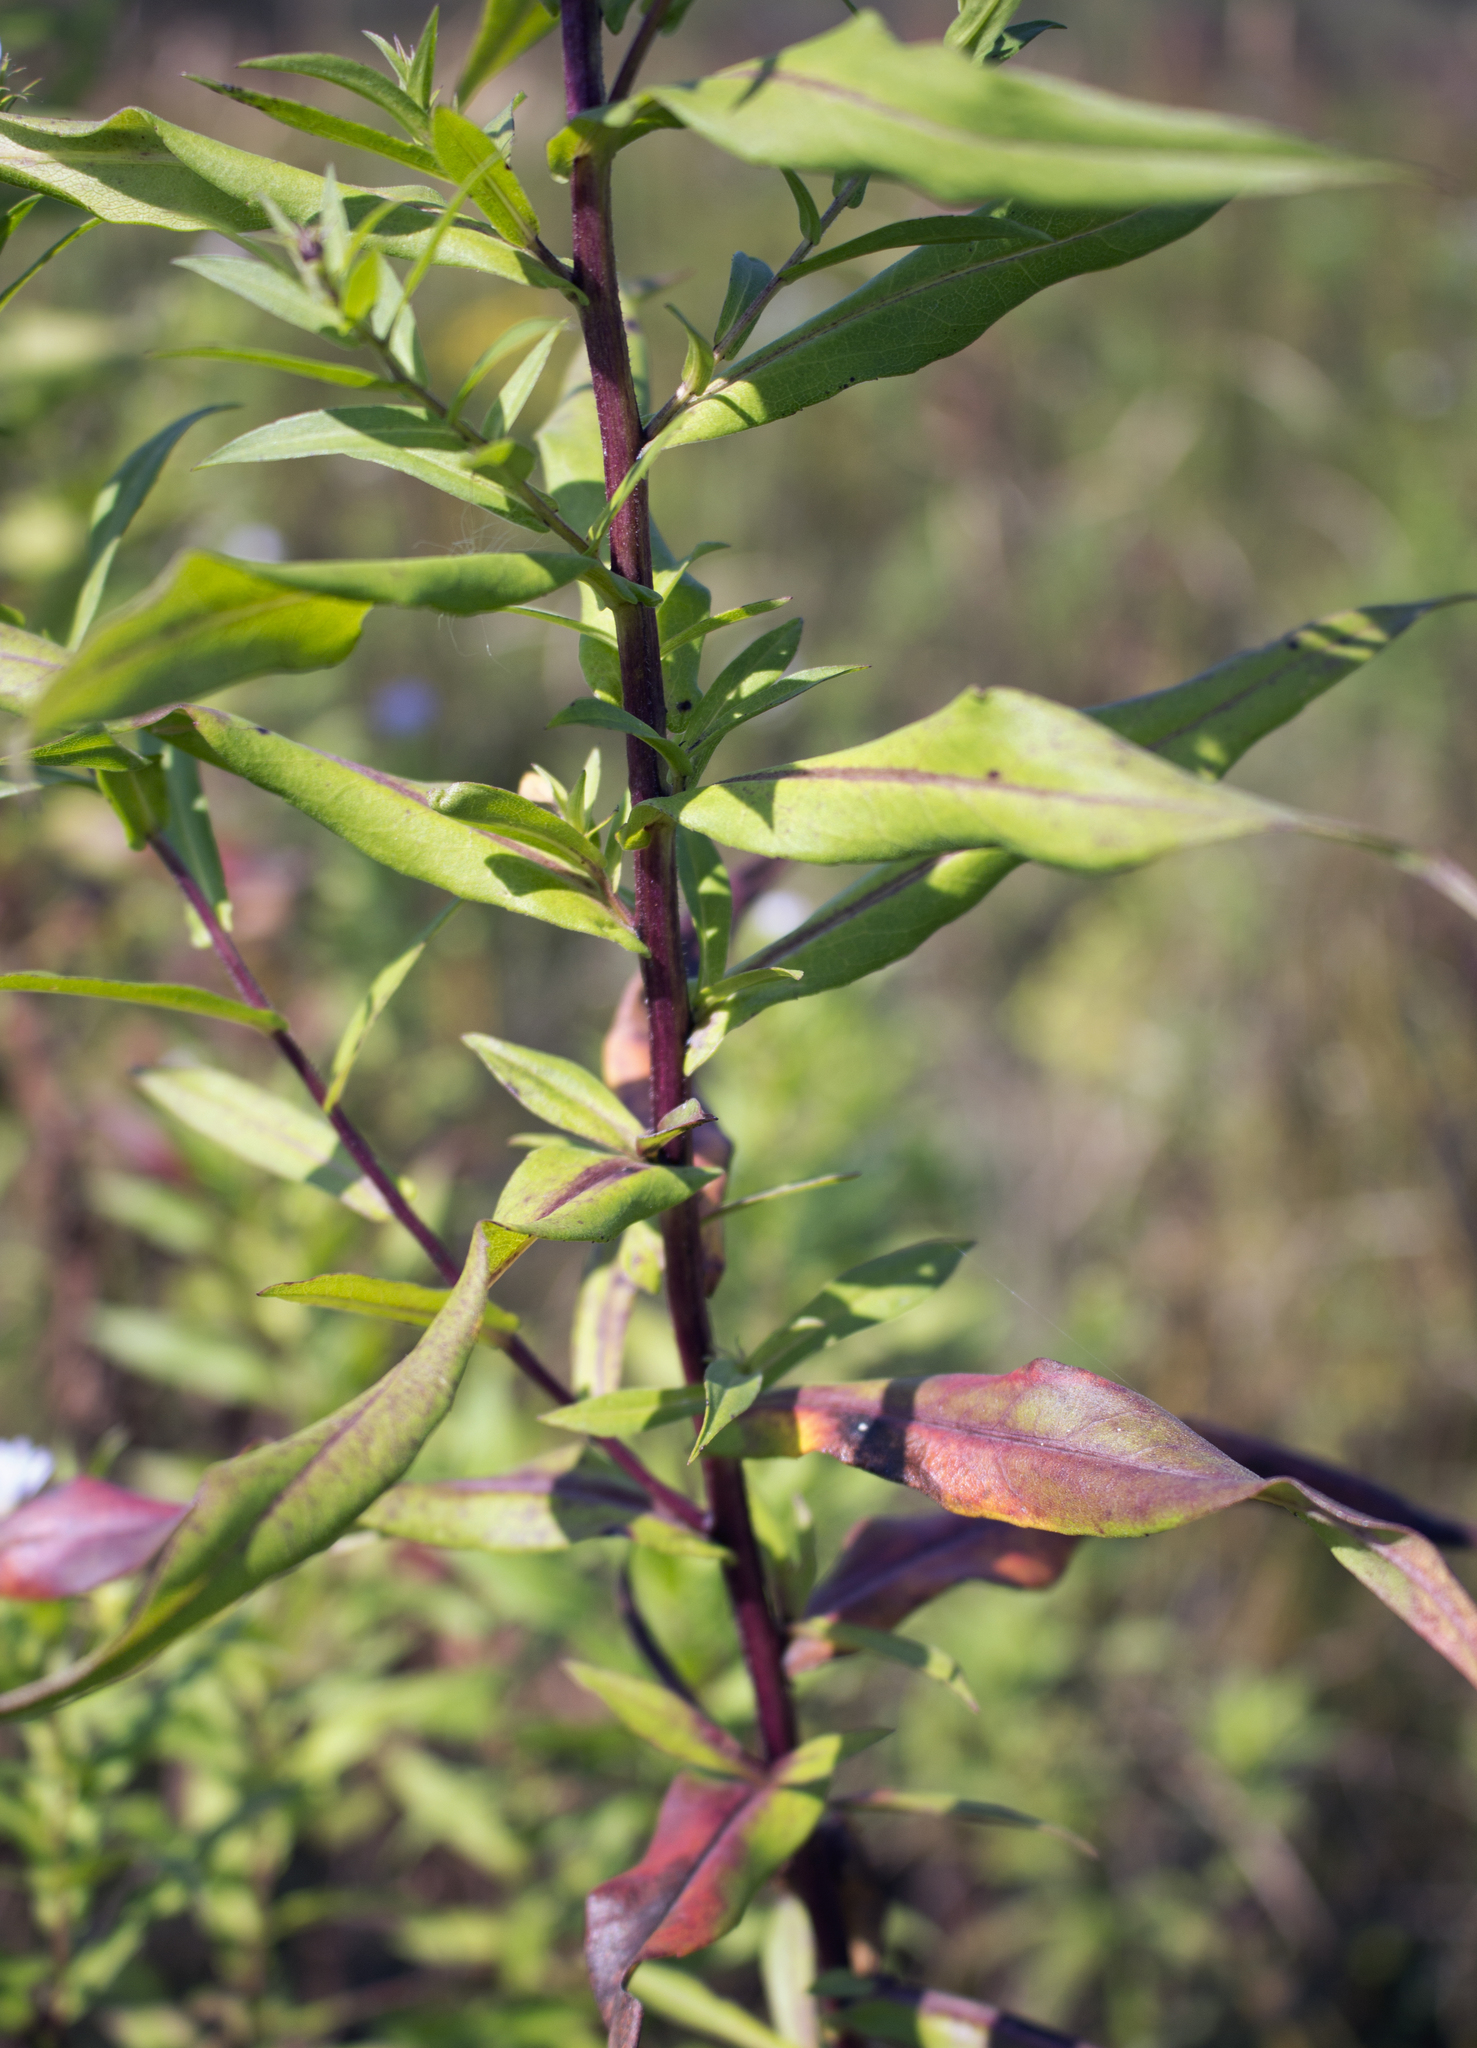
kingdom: Plantae
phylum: Tracheophyta
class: Magnoliopsida
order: Asterales
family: Asteraceae
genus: Symphyotrichum
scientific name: Symphyotrichum firmum
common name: Shining aster
